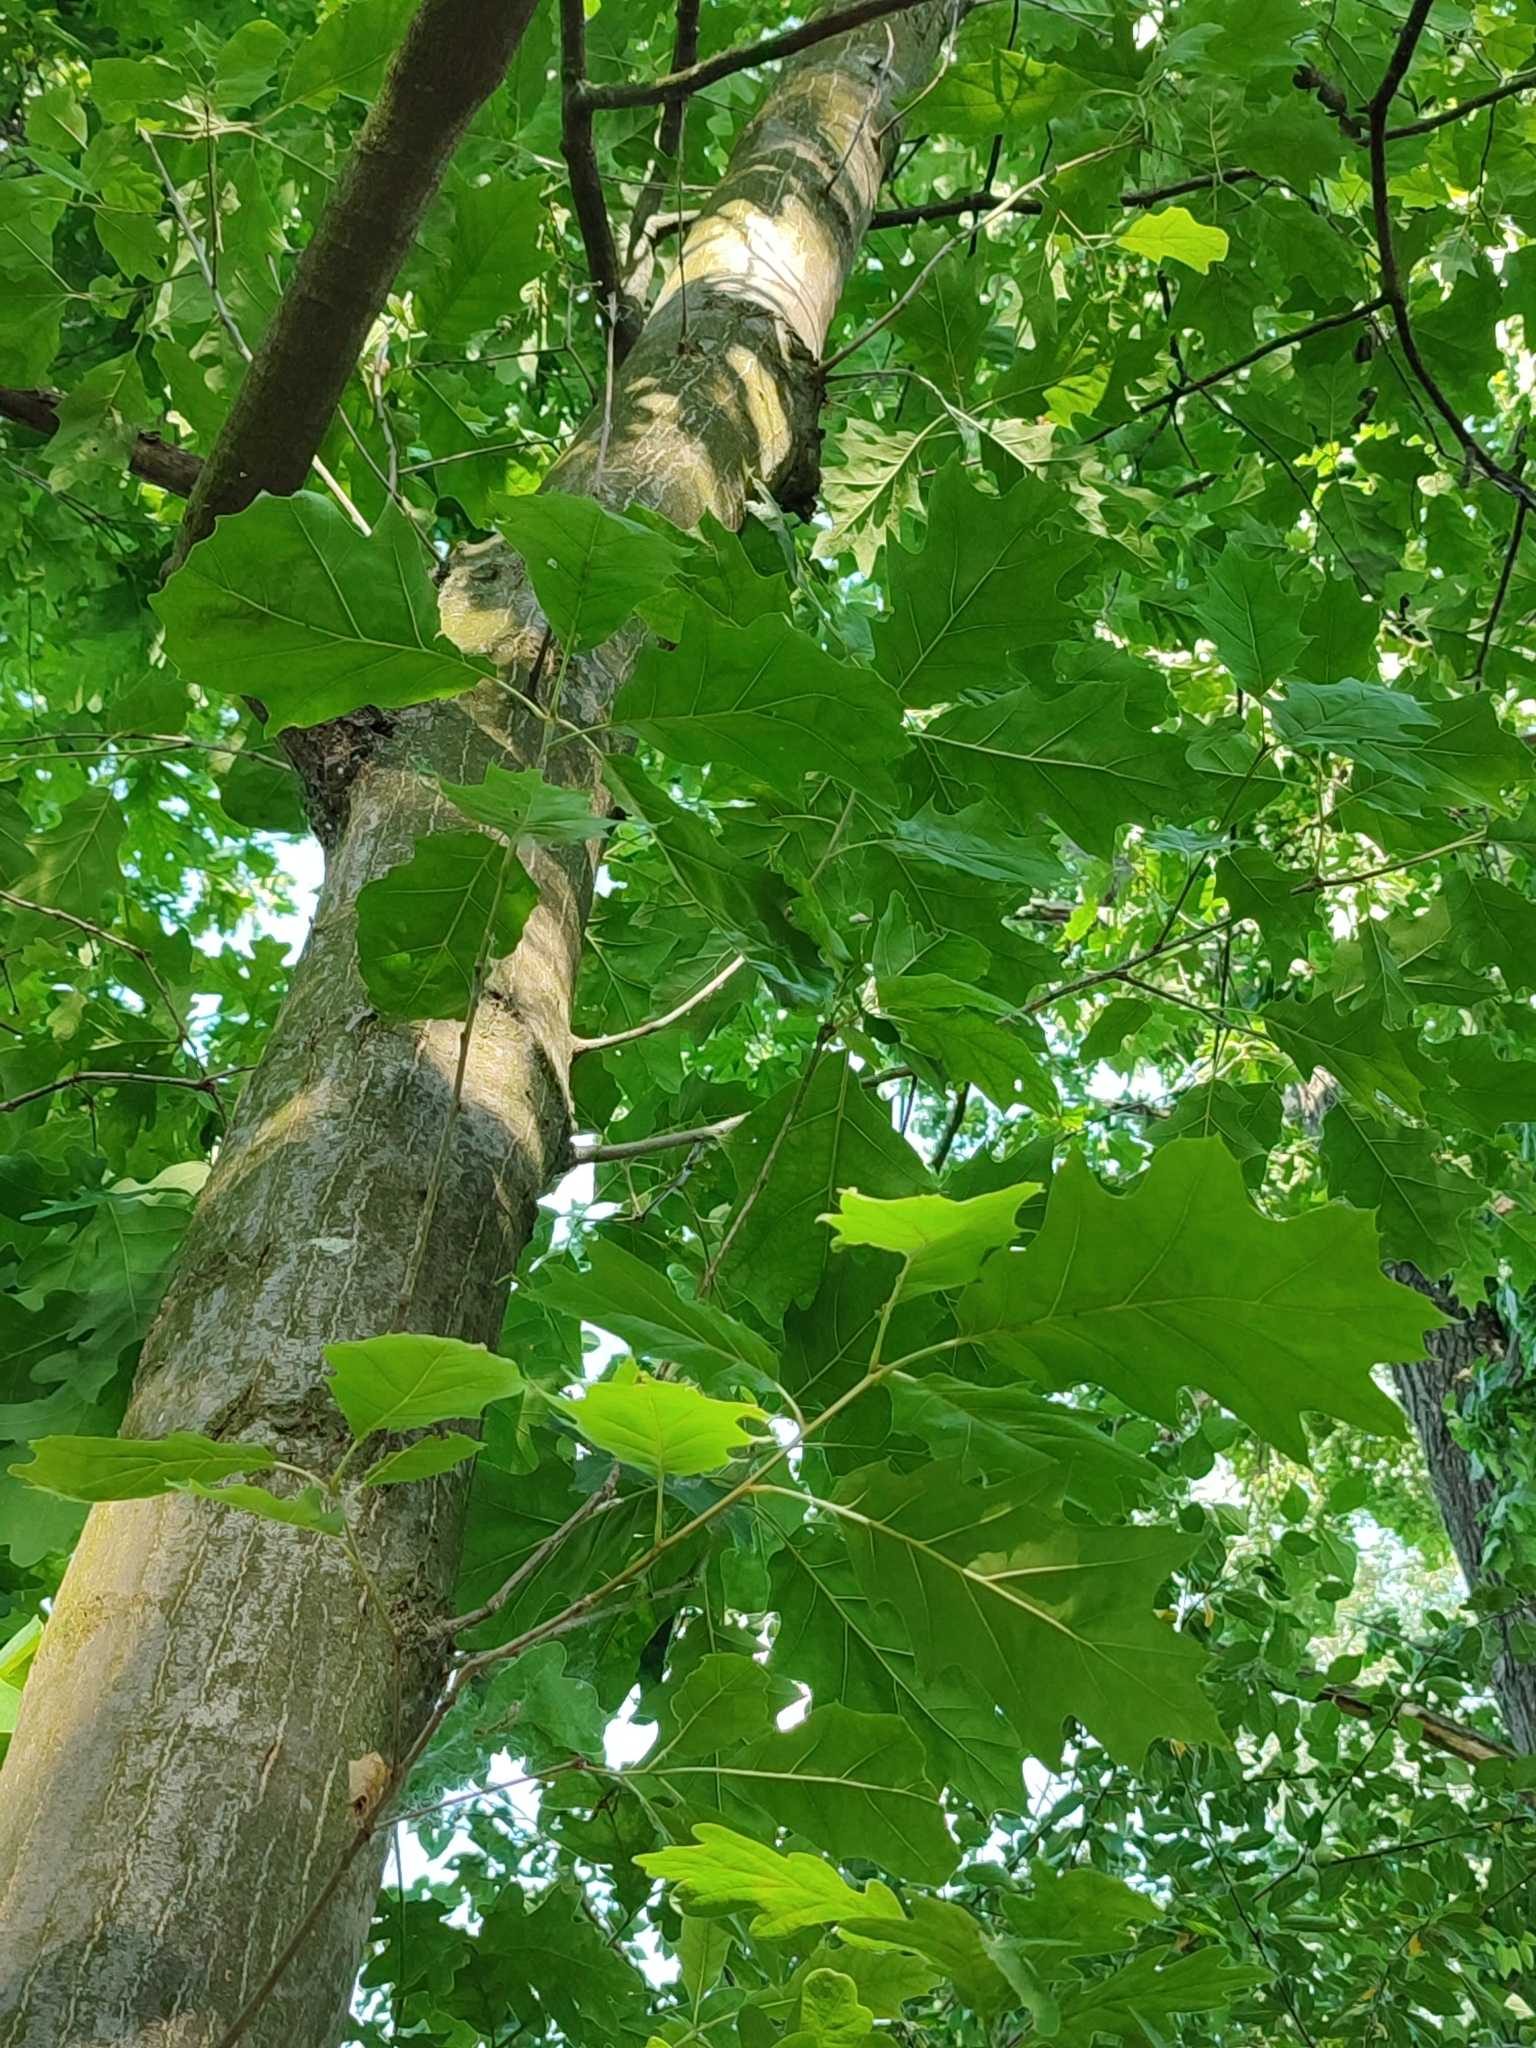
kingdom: Plantae
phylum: Tracheophyta
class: Magnoliopsida
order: Fagales
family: Fagaceae
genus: Quercus
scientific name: Quercus rubra
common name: Red oak
